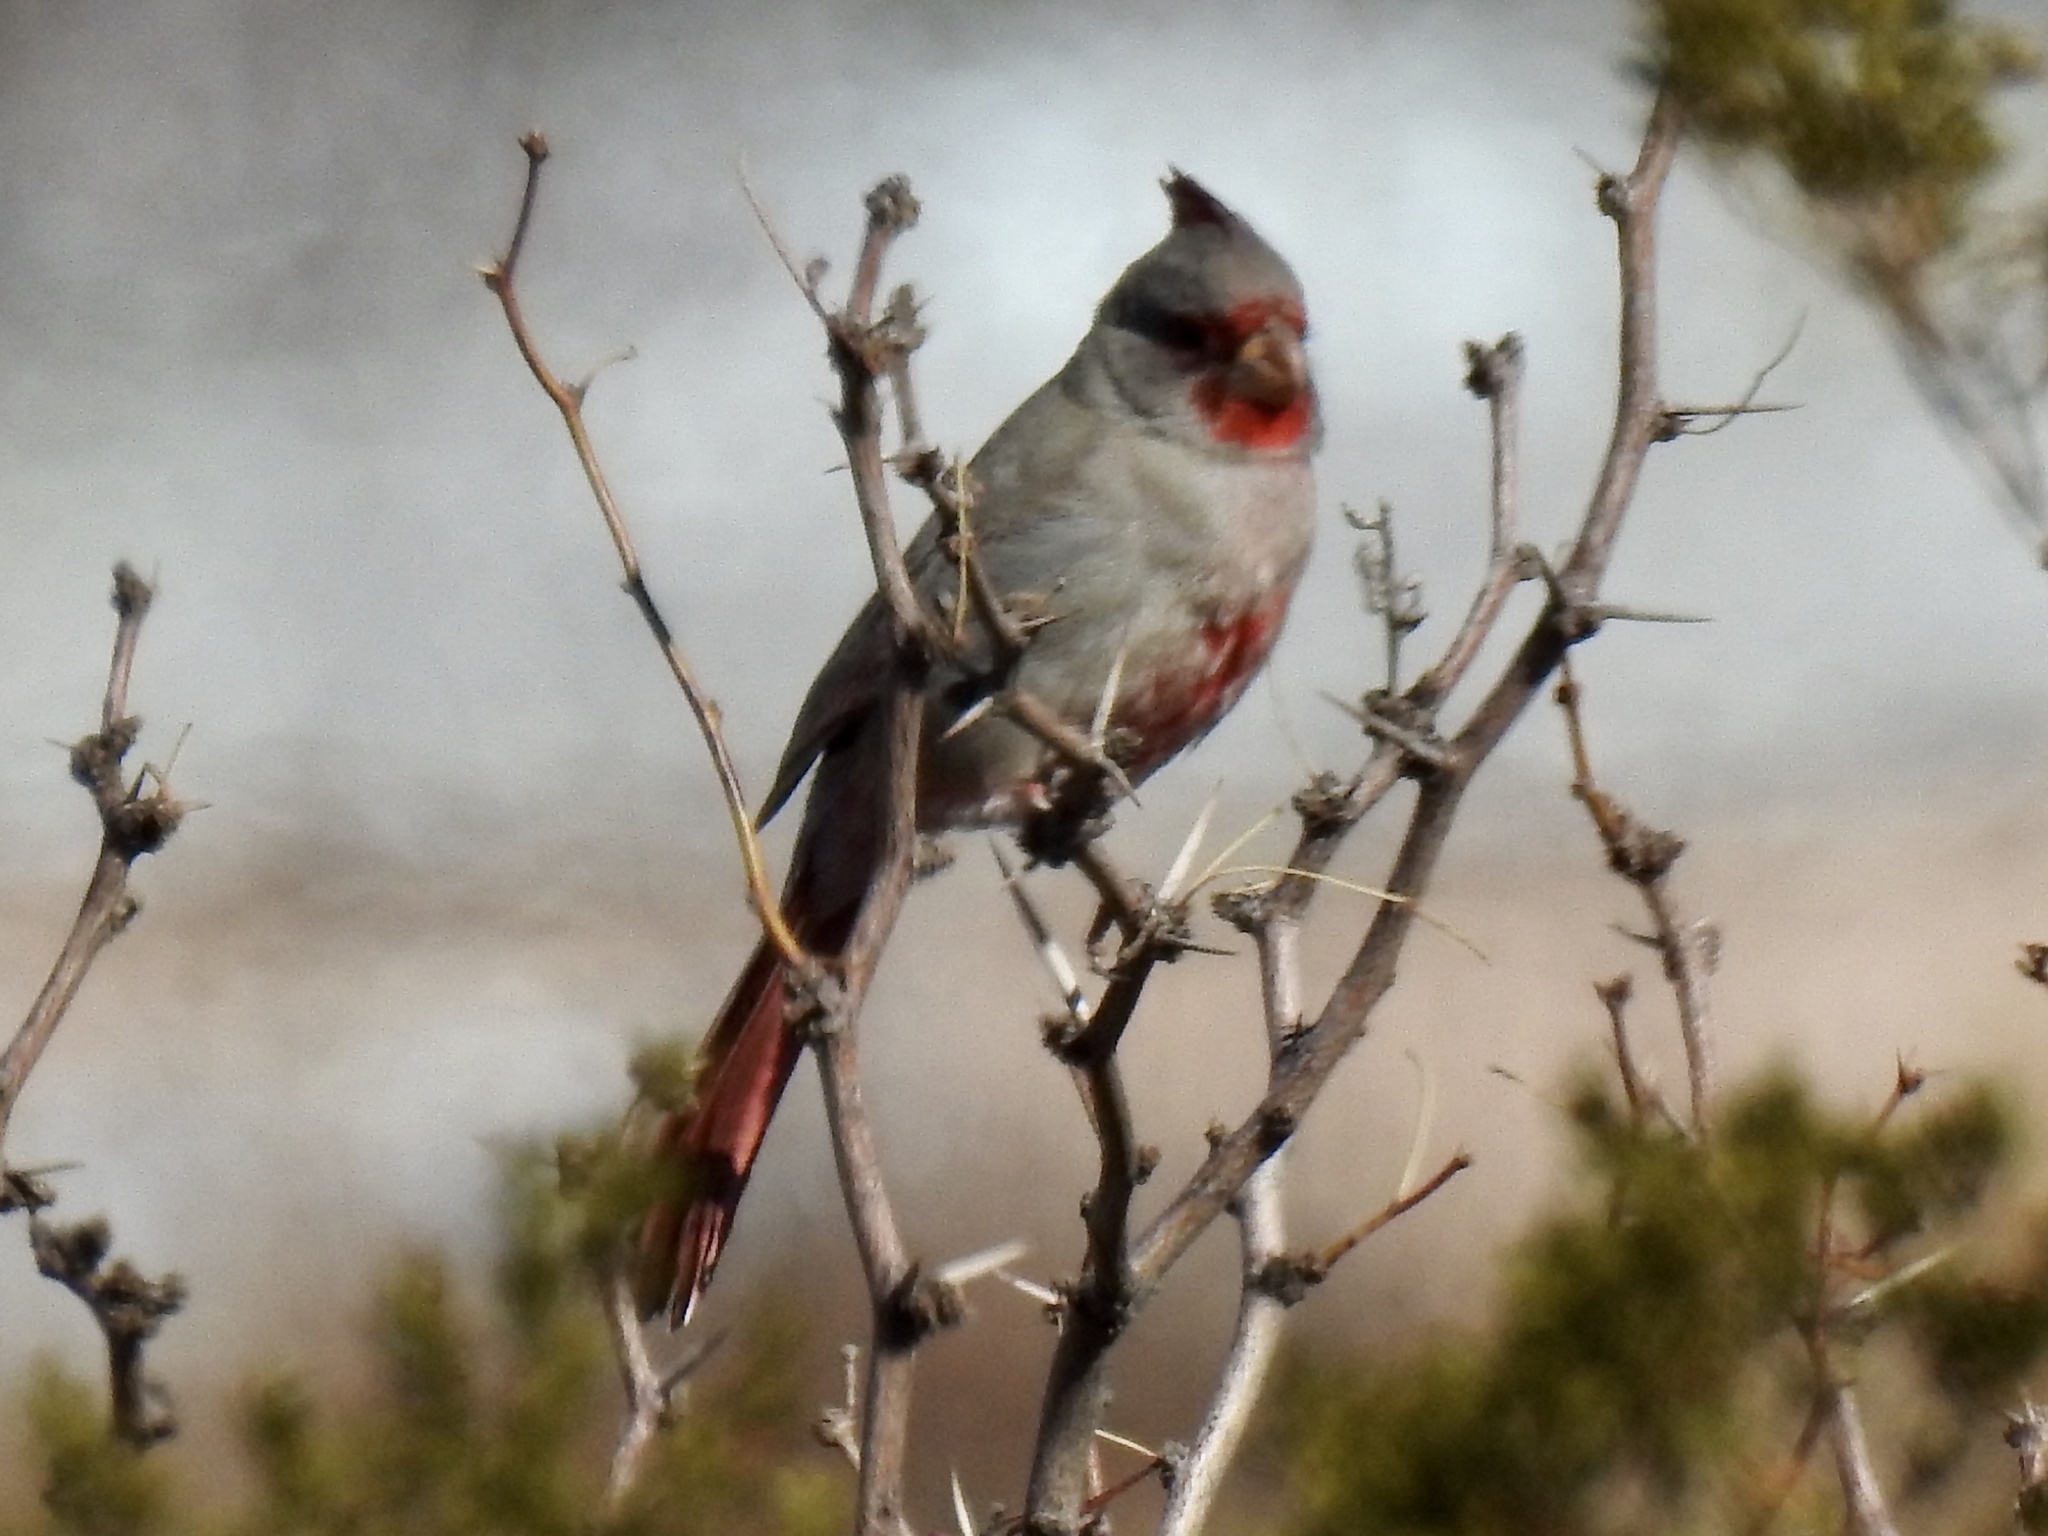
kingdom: Animalia
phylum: Chordata
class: Aves
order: Passeriformes
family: Cardinalidae
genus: Cardinalis
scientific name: Cardinalis sinuatus
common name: Pyrrhuloxia
